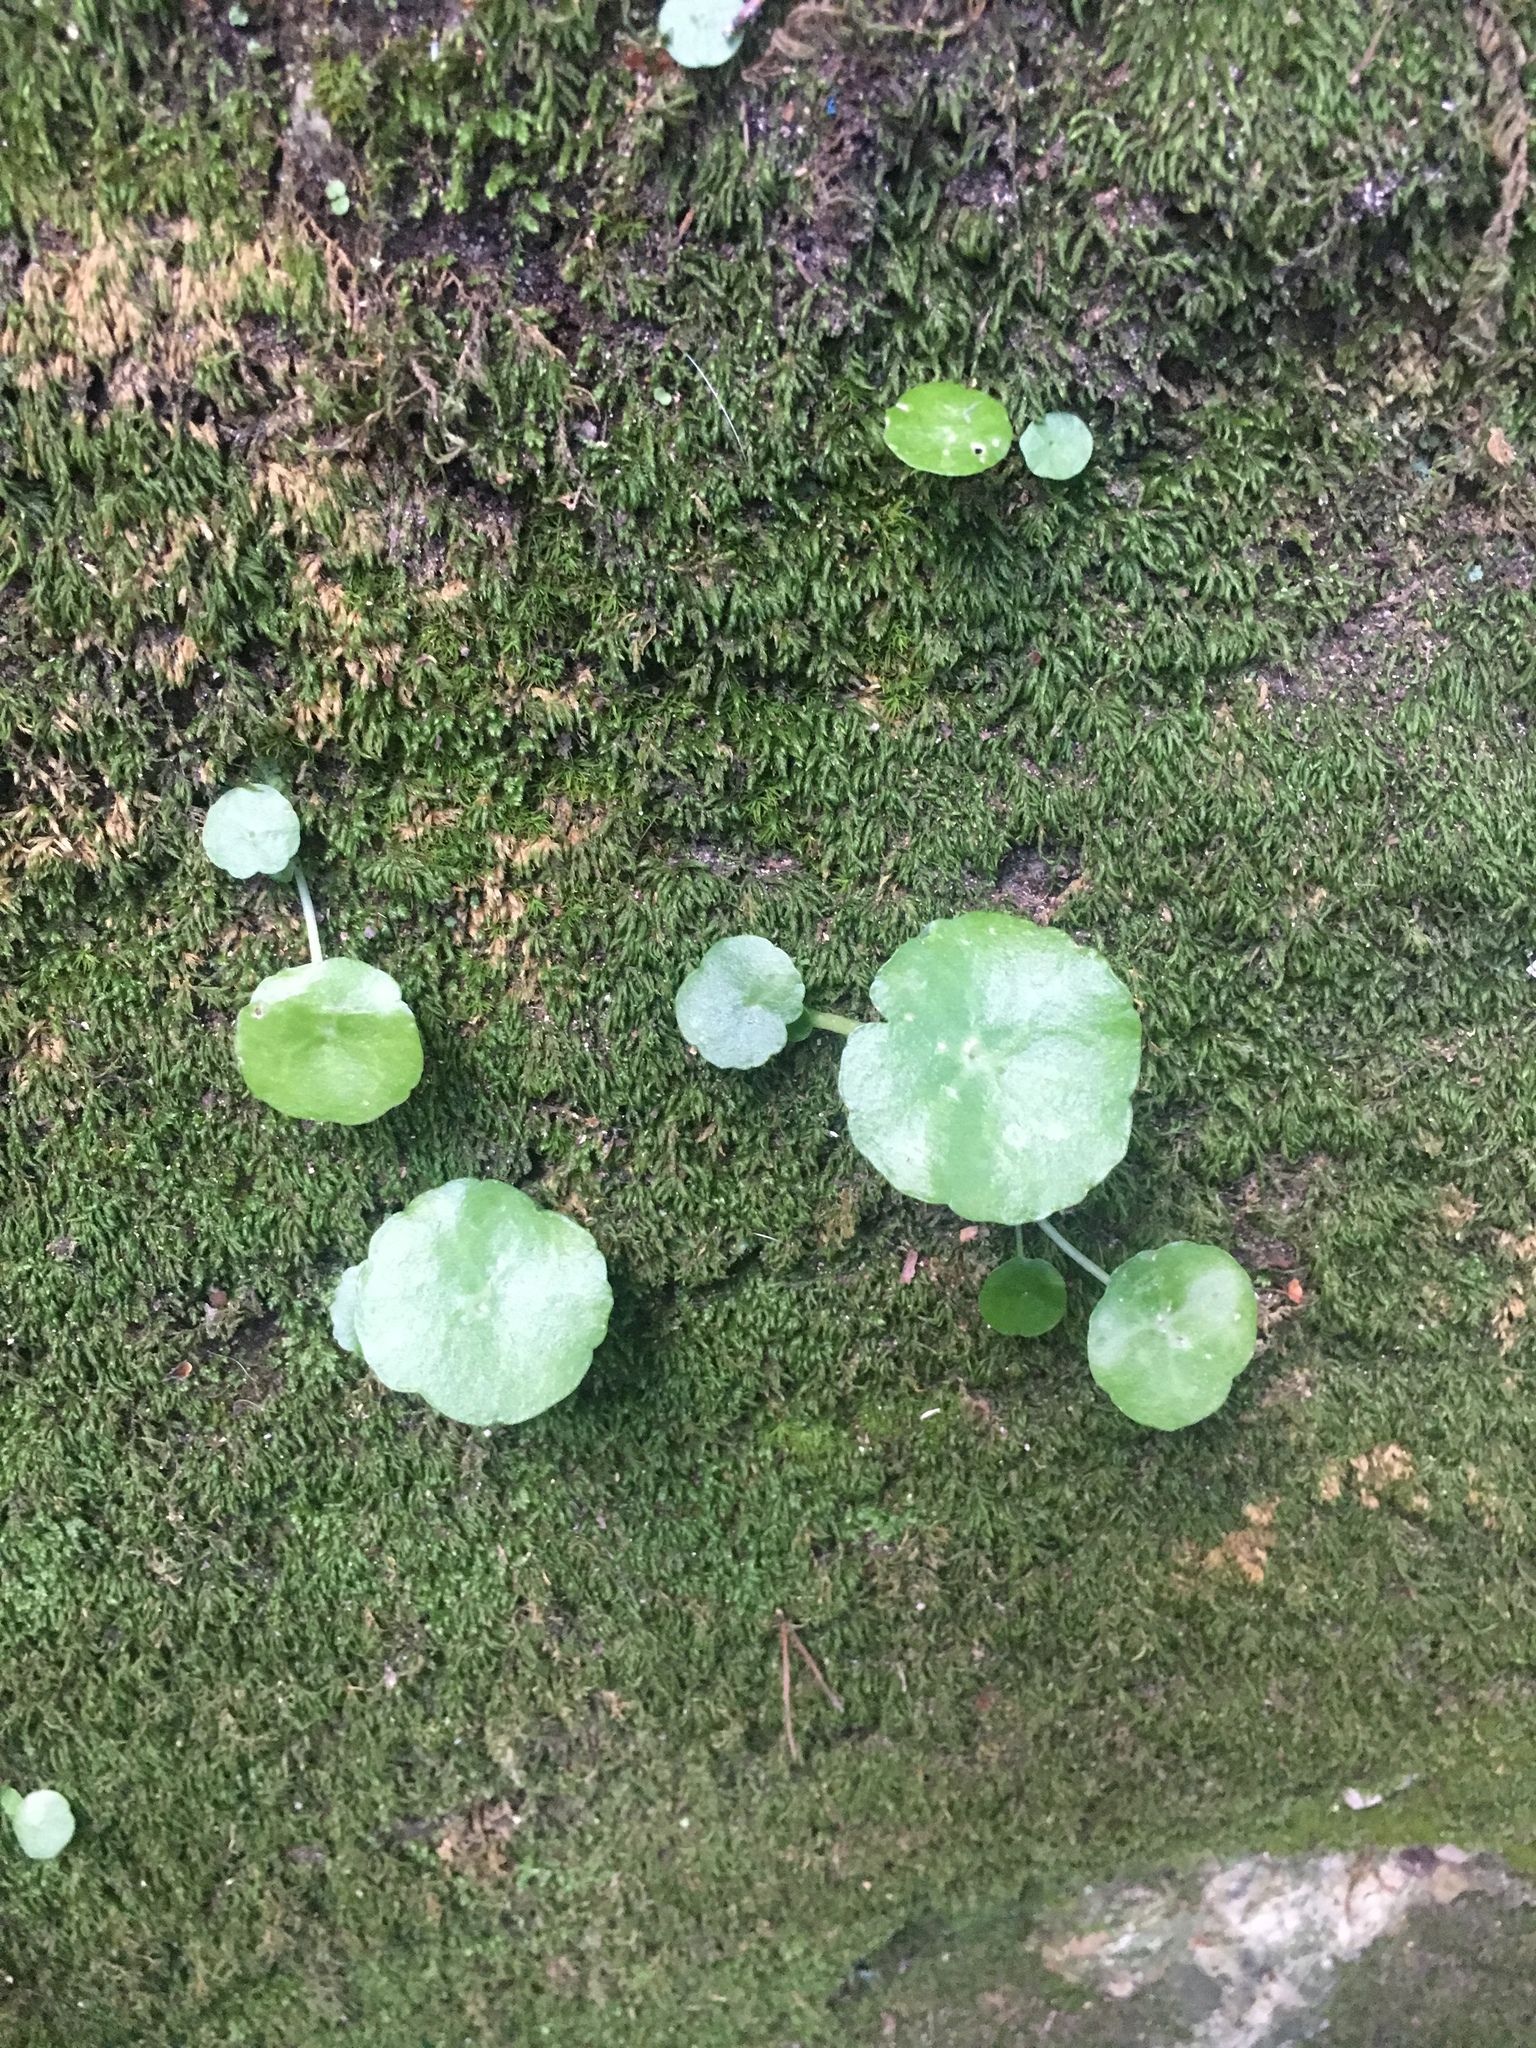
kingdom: Plantae
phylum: Tracheophyta
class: Magnoliopsida
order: Saxifragales
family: Crassulaceae
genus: Umbilicus
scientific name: Umbilicus rupestris
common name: Navelwort
